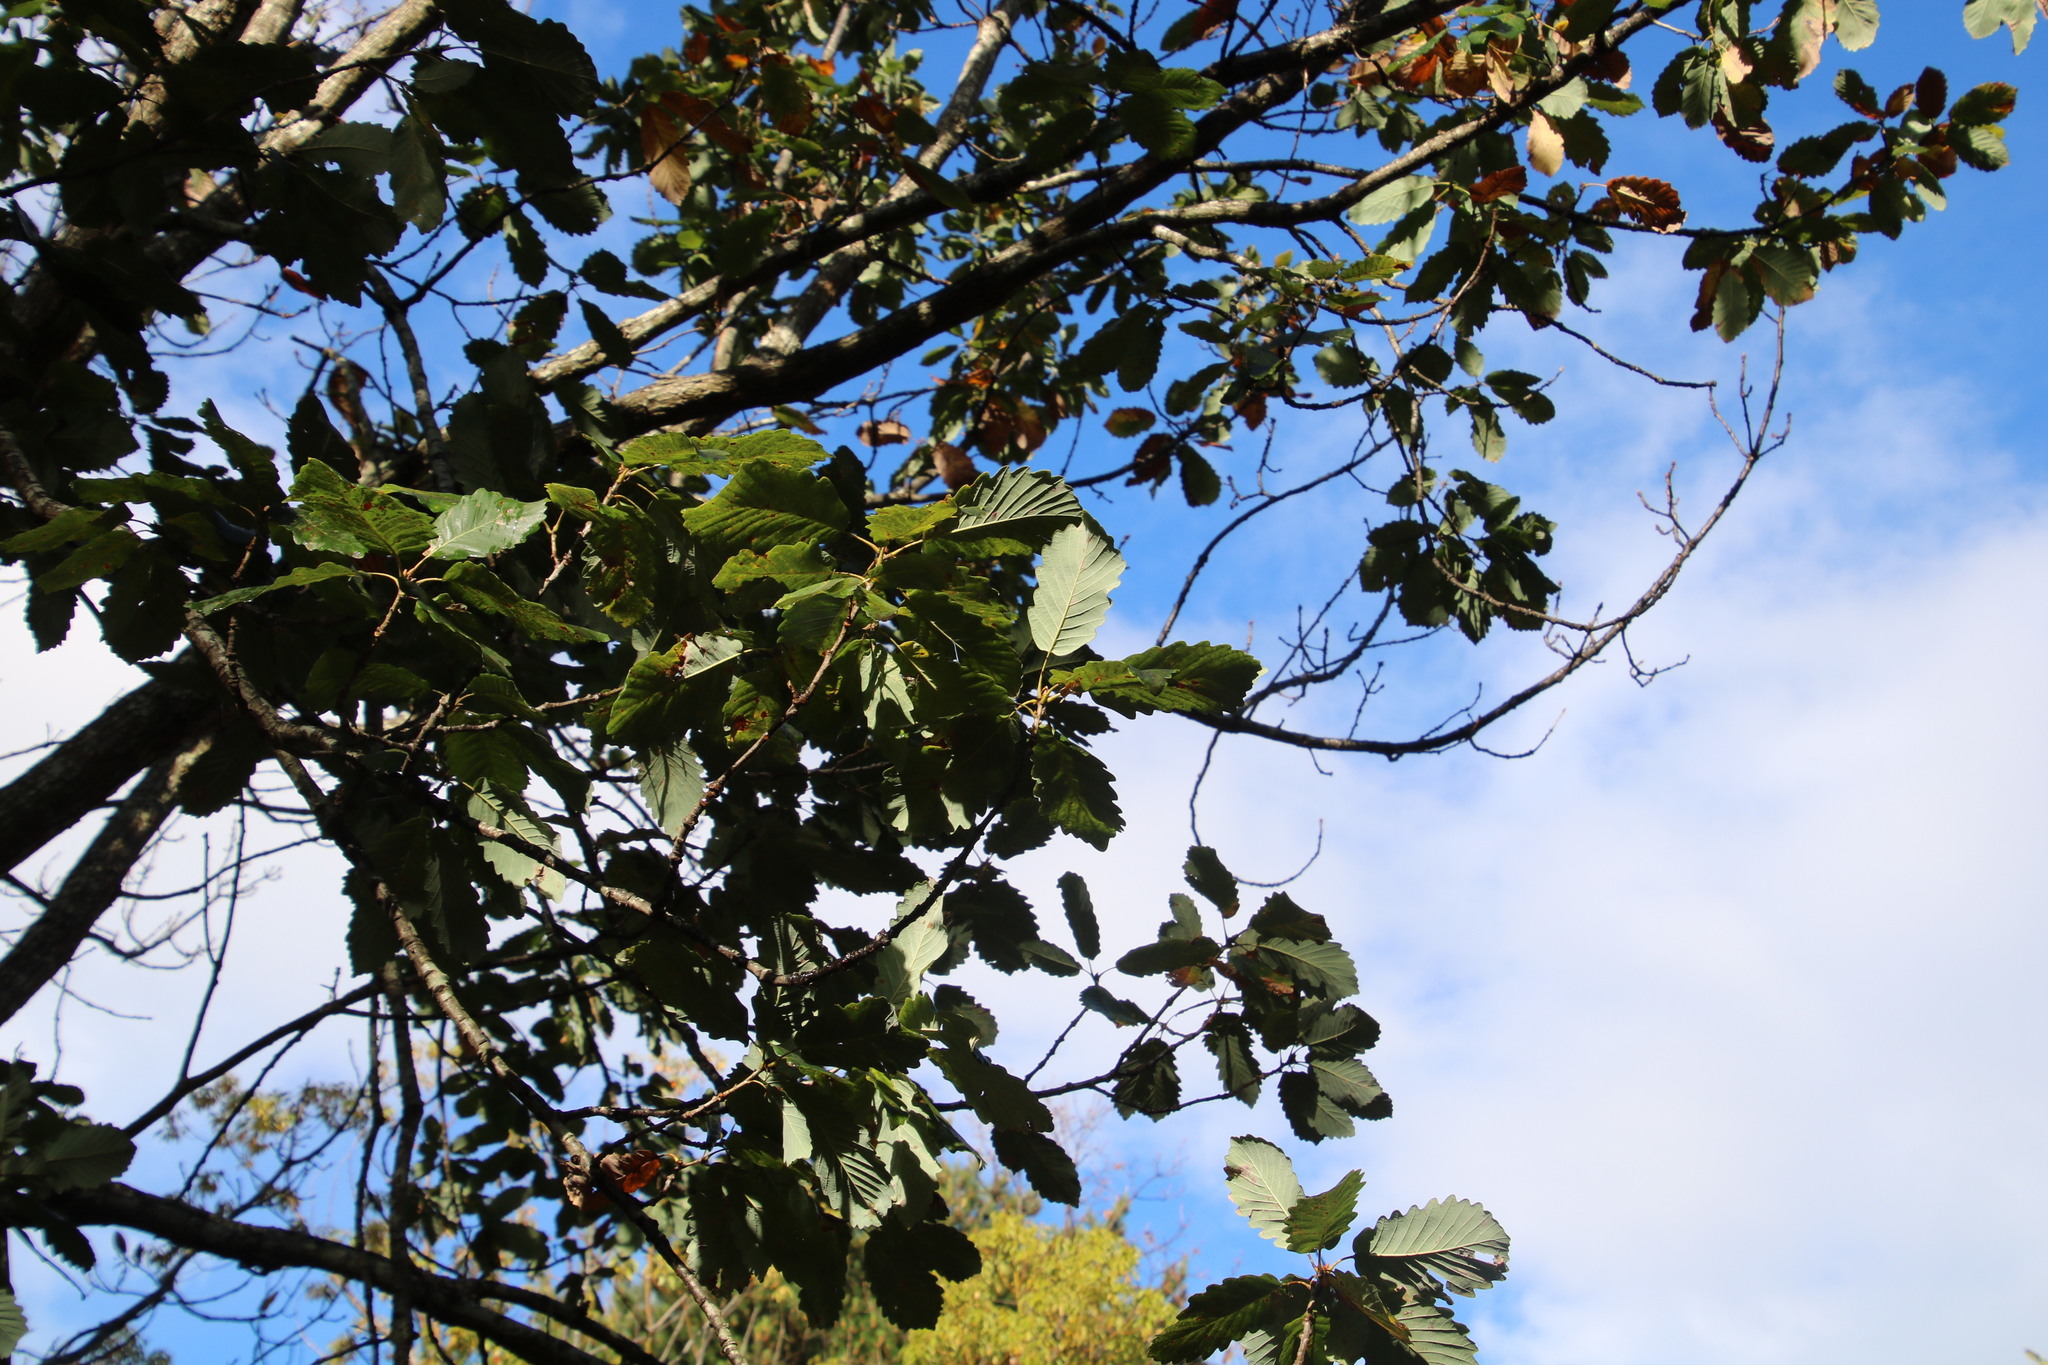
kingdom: Plantae
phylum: Tracheophyta
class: Magnoliopsida
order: Fagales
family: Fagaceae
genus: Quercus
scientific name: Quercus canariensis
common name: Algerian oak
